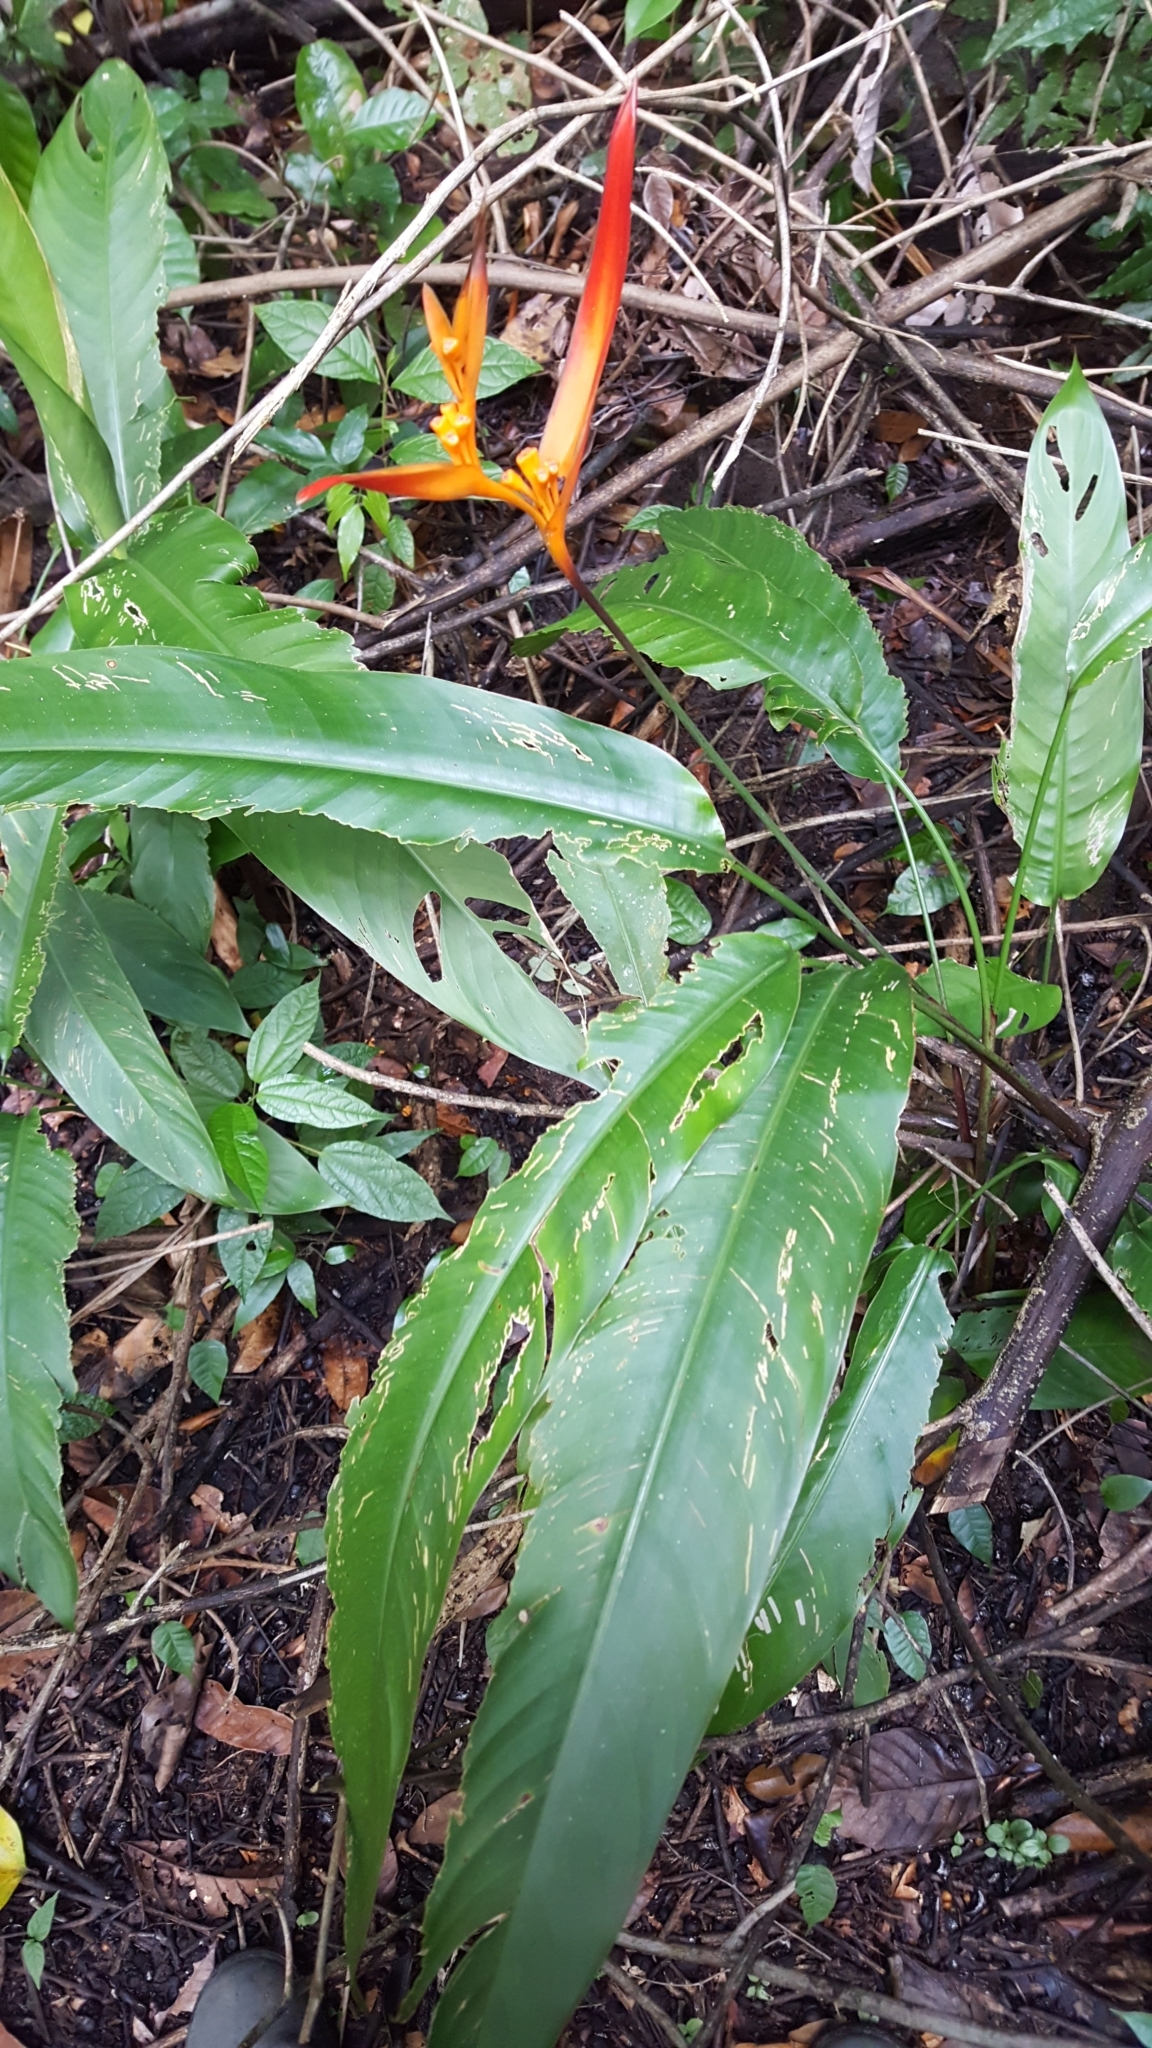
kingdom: Plantae
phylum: Tracheophyta
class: Liliopsida
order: Zingiberales
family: Heliconiaceae
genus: Heliconia
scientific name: Heliconia psittacorum
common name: Parrot's-flower
